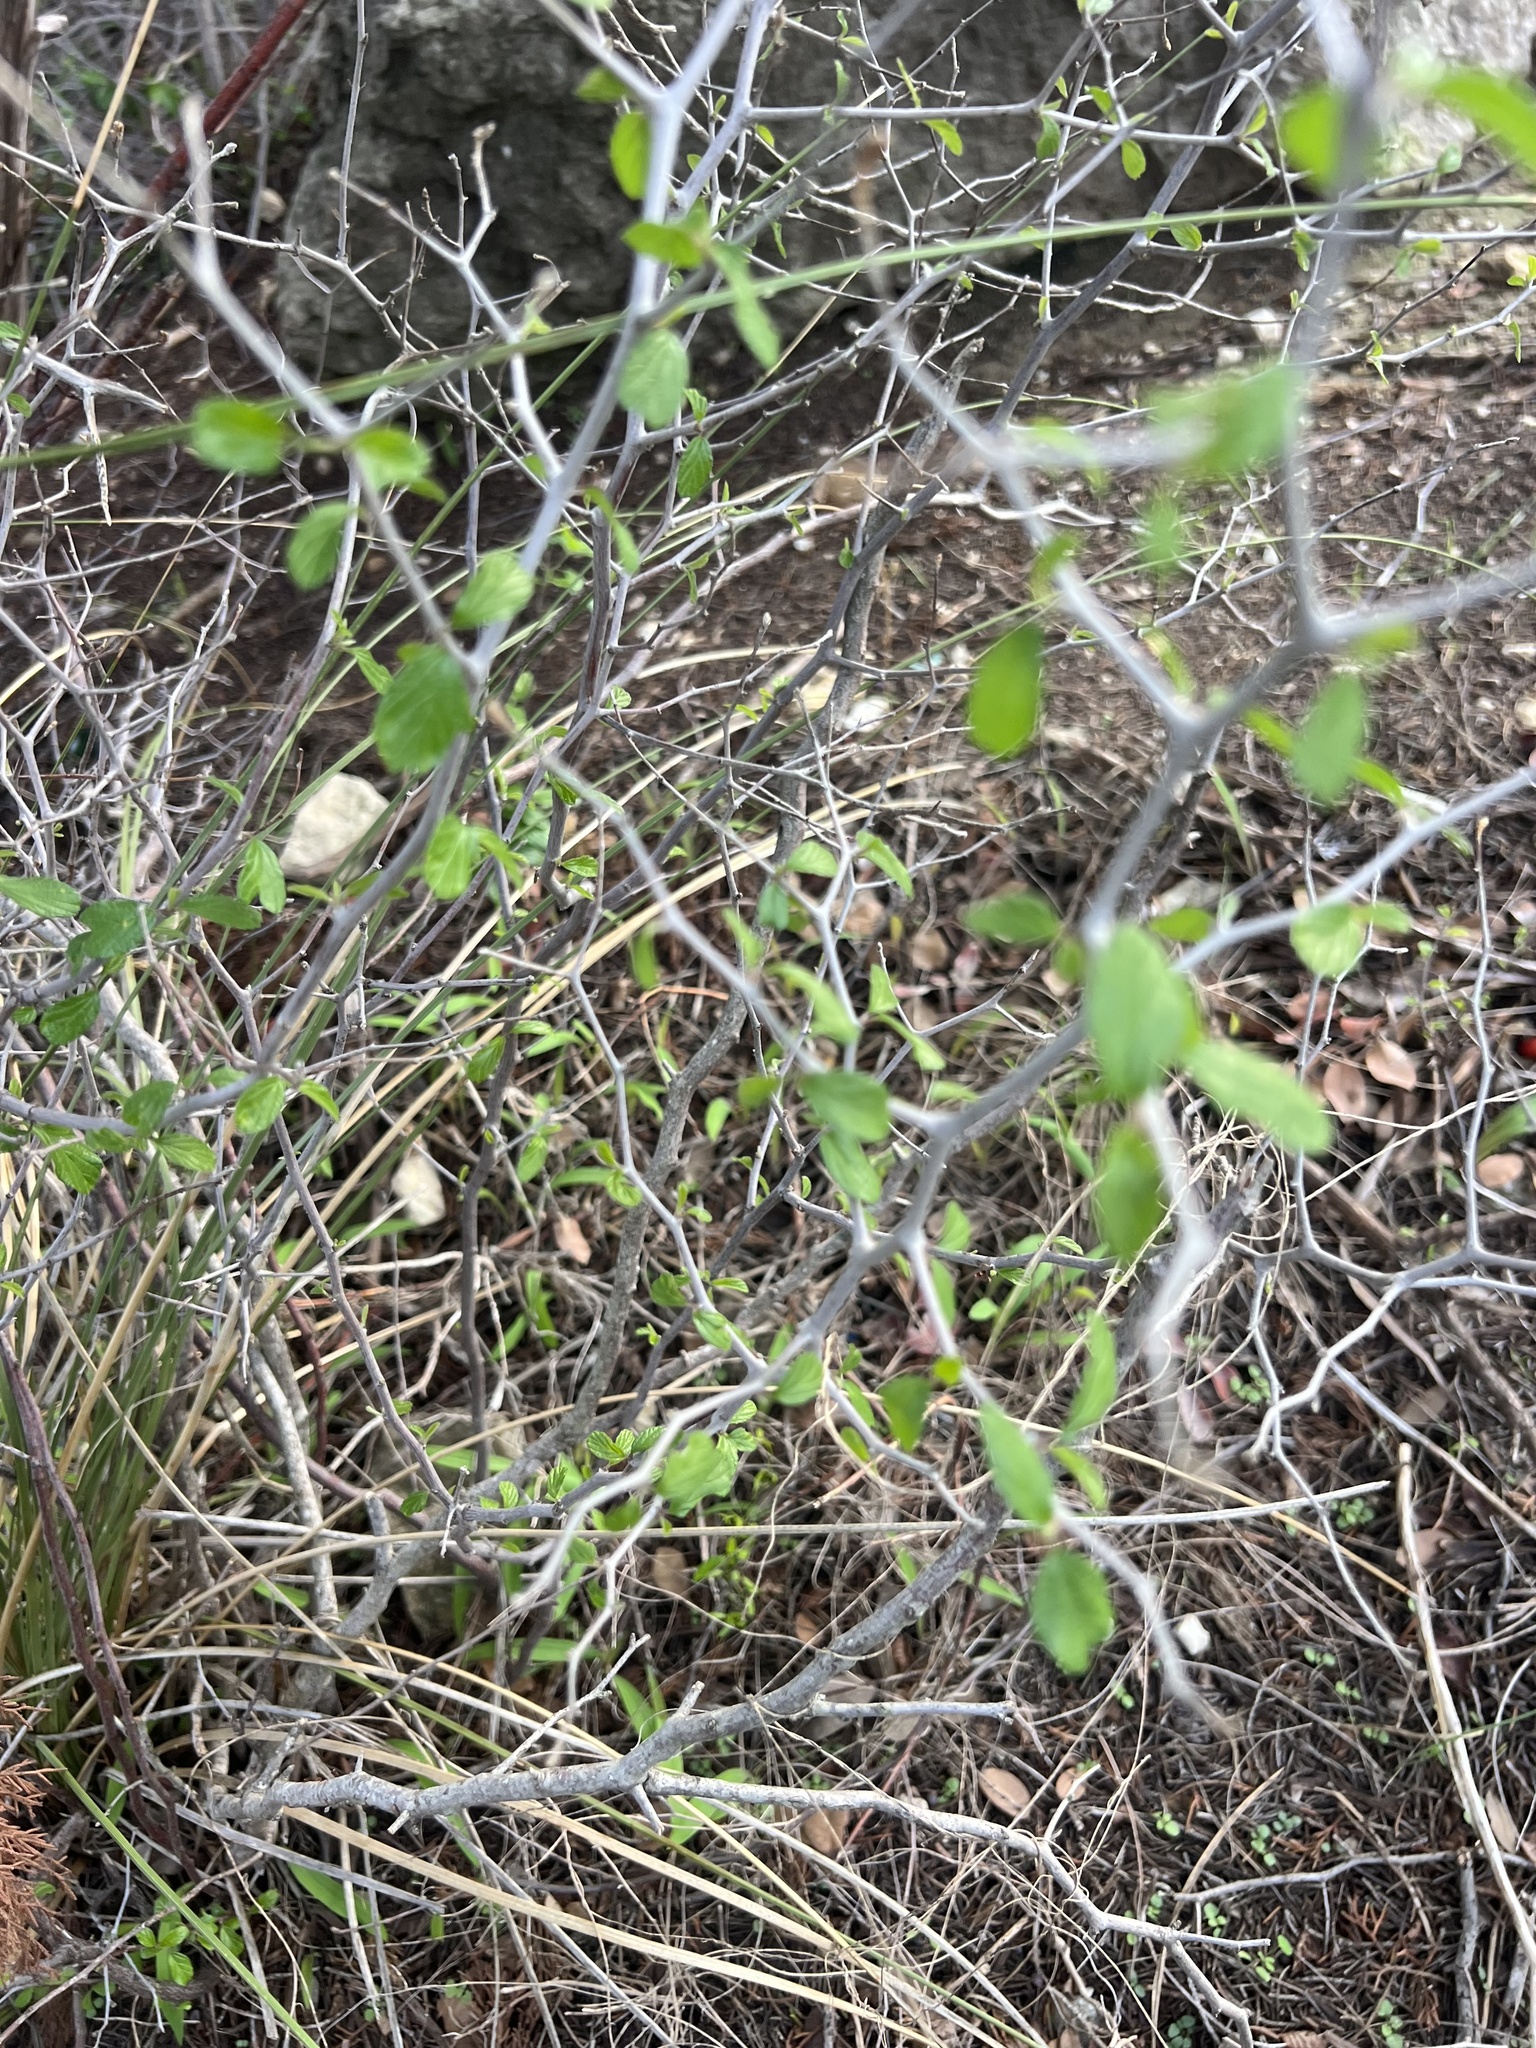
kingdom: Plantae
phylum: Tracheophyta
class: Magnoliopsida
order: Rosales
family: Rhamnaceae
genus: Colubrina
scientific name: Colubrina texensis
